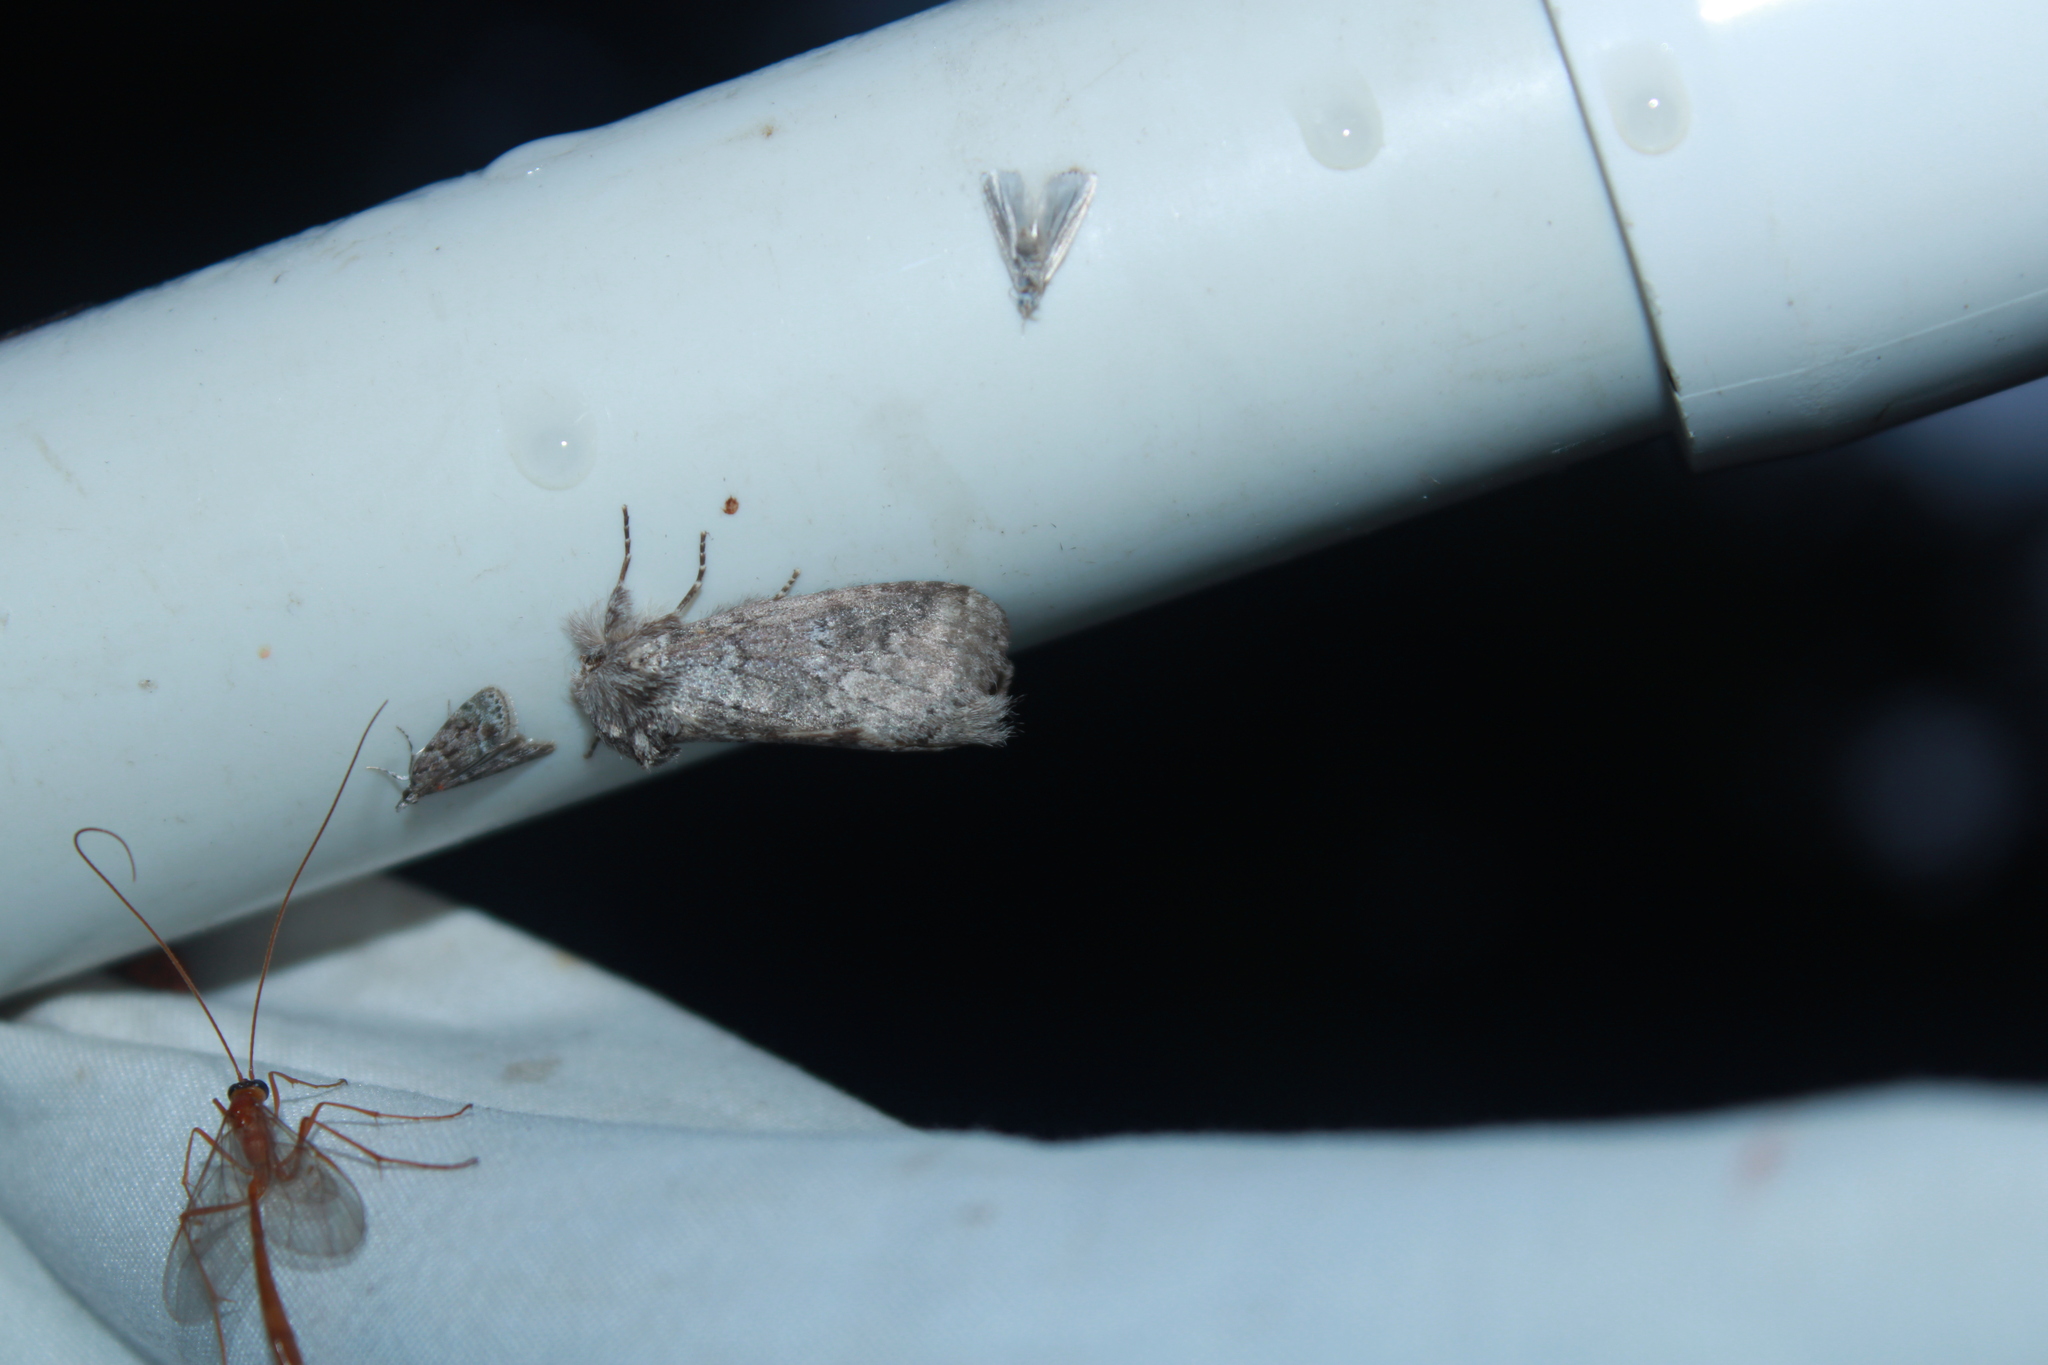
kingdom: Animalia
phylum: Arthropoda
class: Insecta
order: Lepidoptera
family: Notodontidae
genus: Lochmaeus
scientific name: Lochmaeus manteo
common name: Variable oakleaf caterpillar moth
